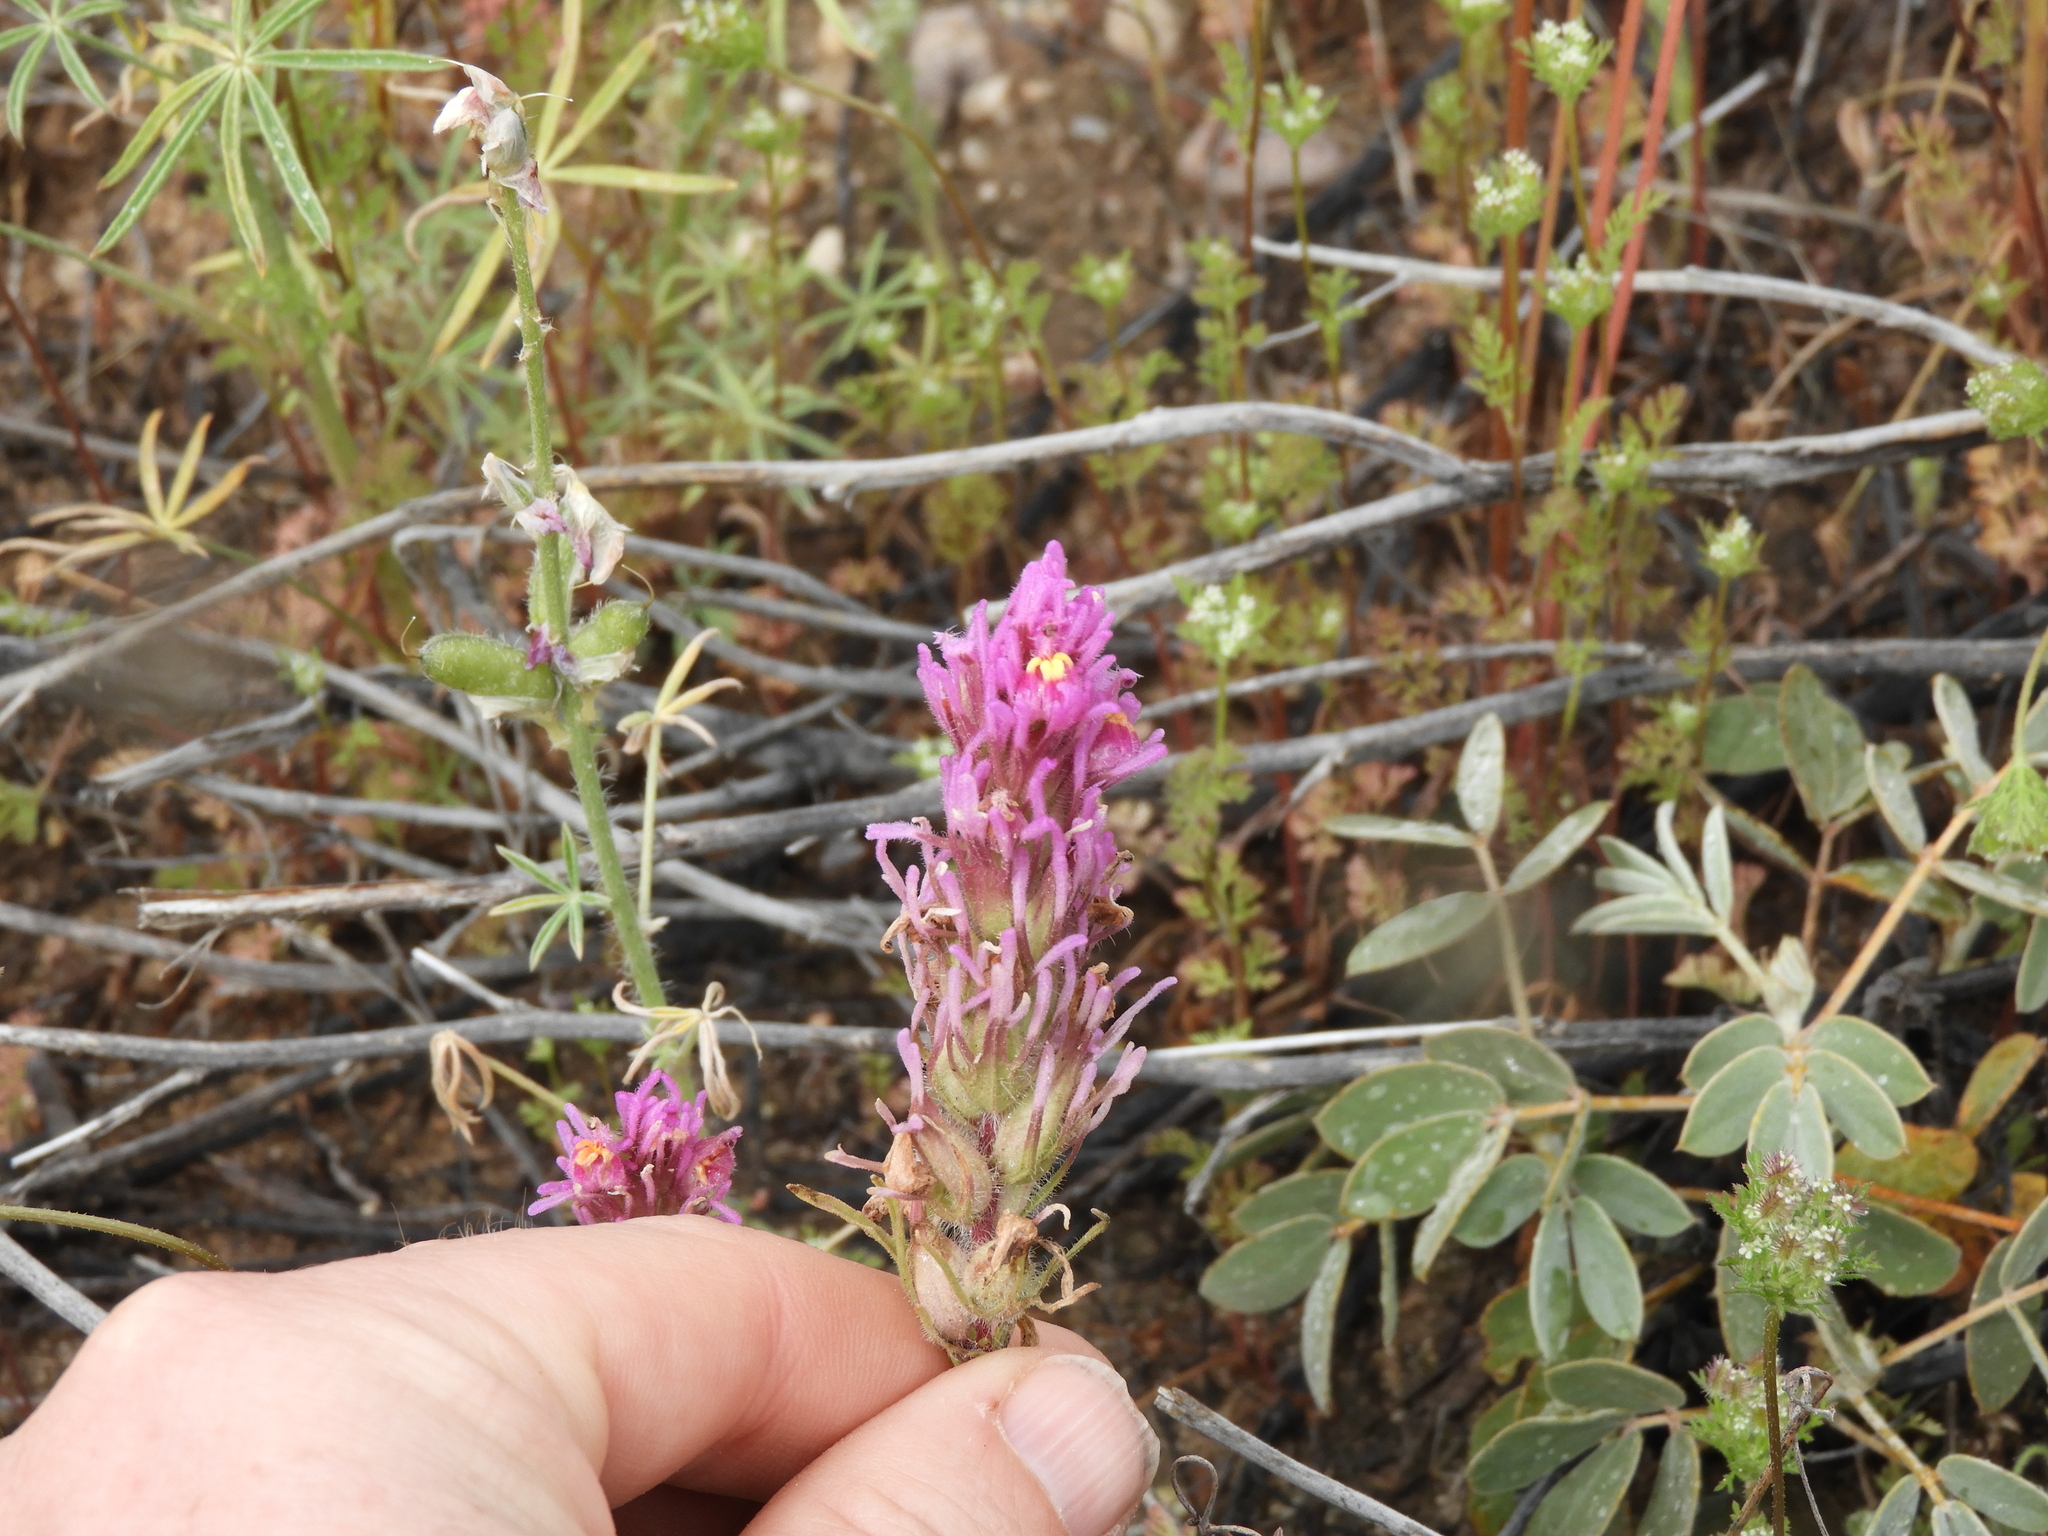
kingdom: Plantae
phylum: Tracheophyta
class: Magnoliopsida
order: Lamiales
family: Orobanchaceae
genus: Castilleja
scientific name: Castilleja exserta
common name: Purple owl-clover
